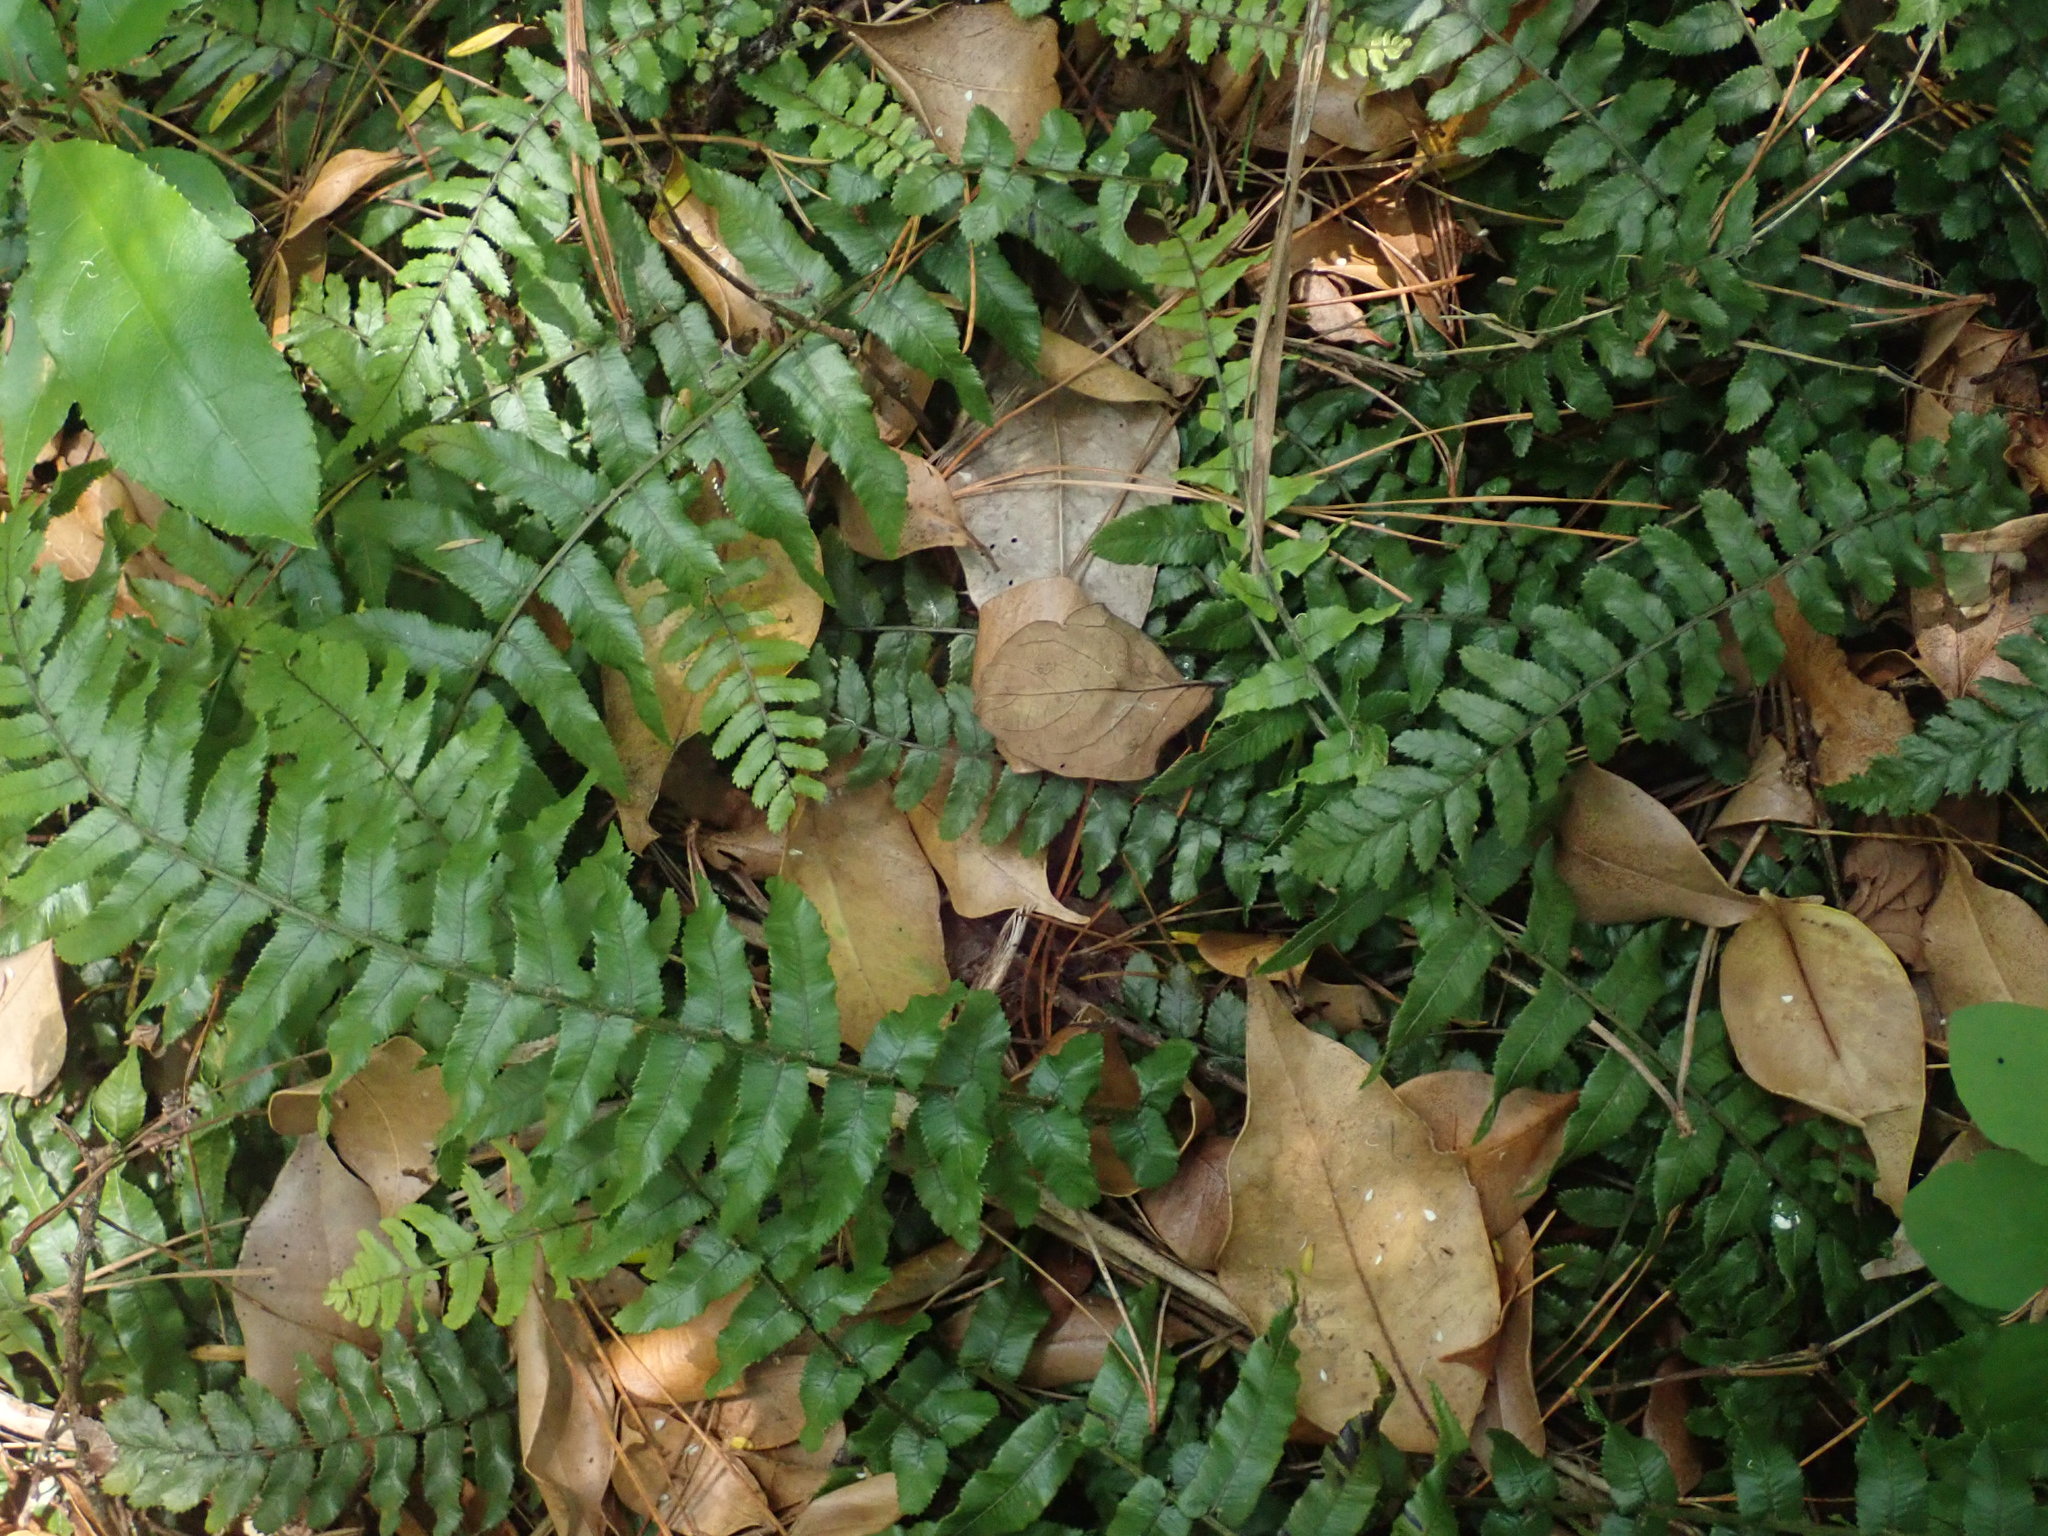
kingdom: Plantae
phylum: Tracheophyta
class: Polypodiopsida
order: Polypodiales
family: Blechnaceae
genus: Icarus
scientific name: Icarus filiformis
